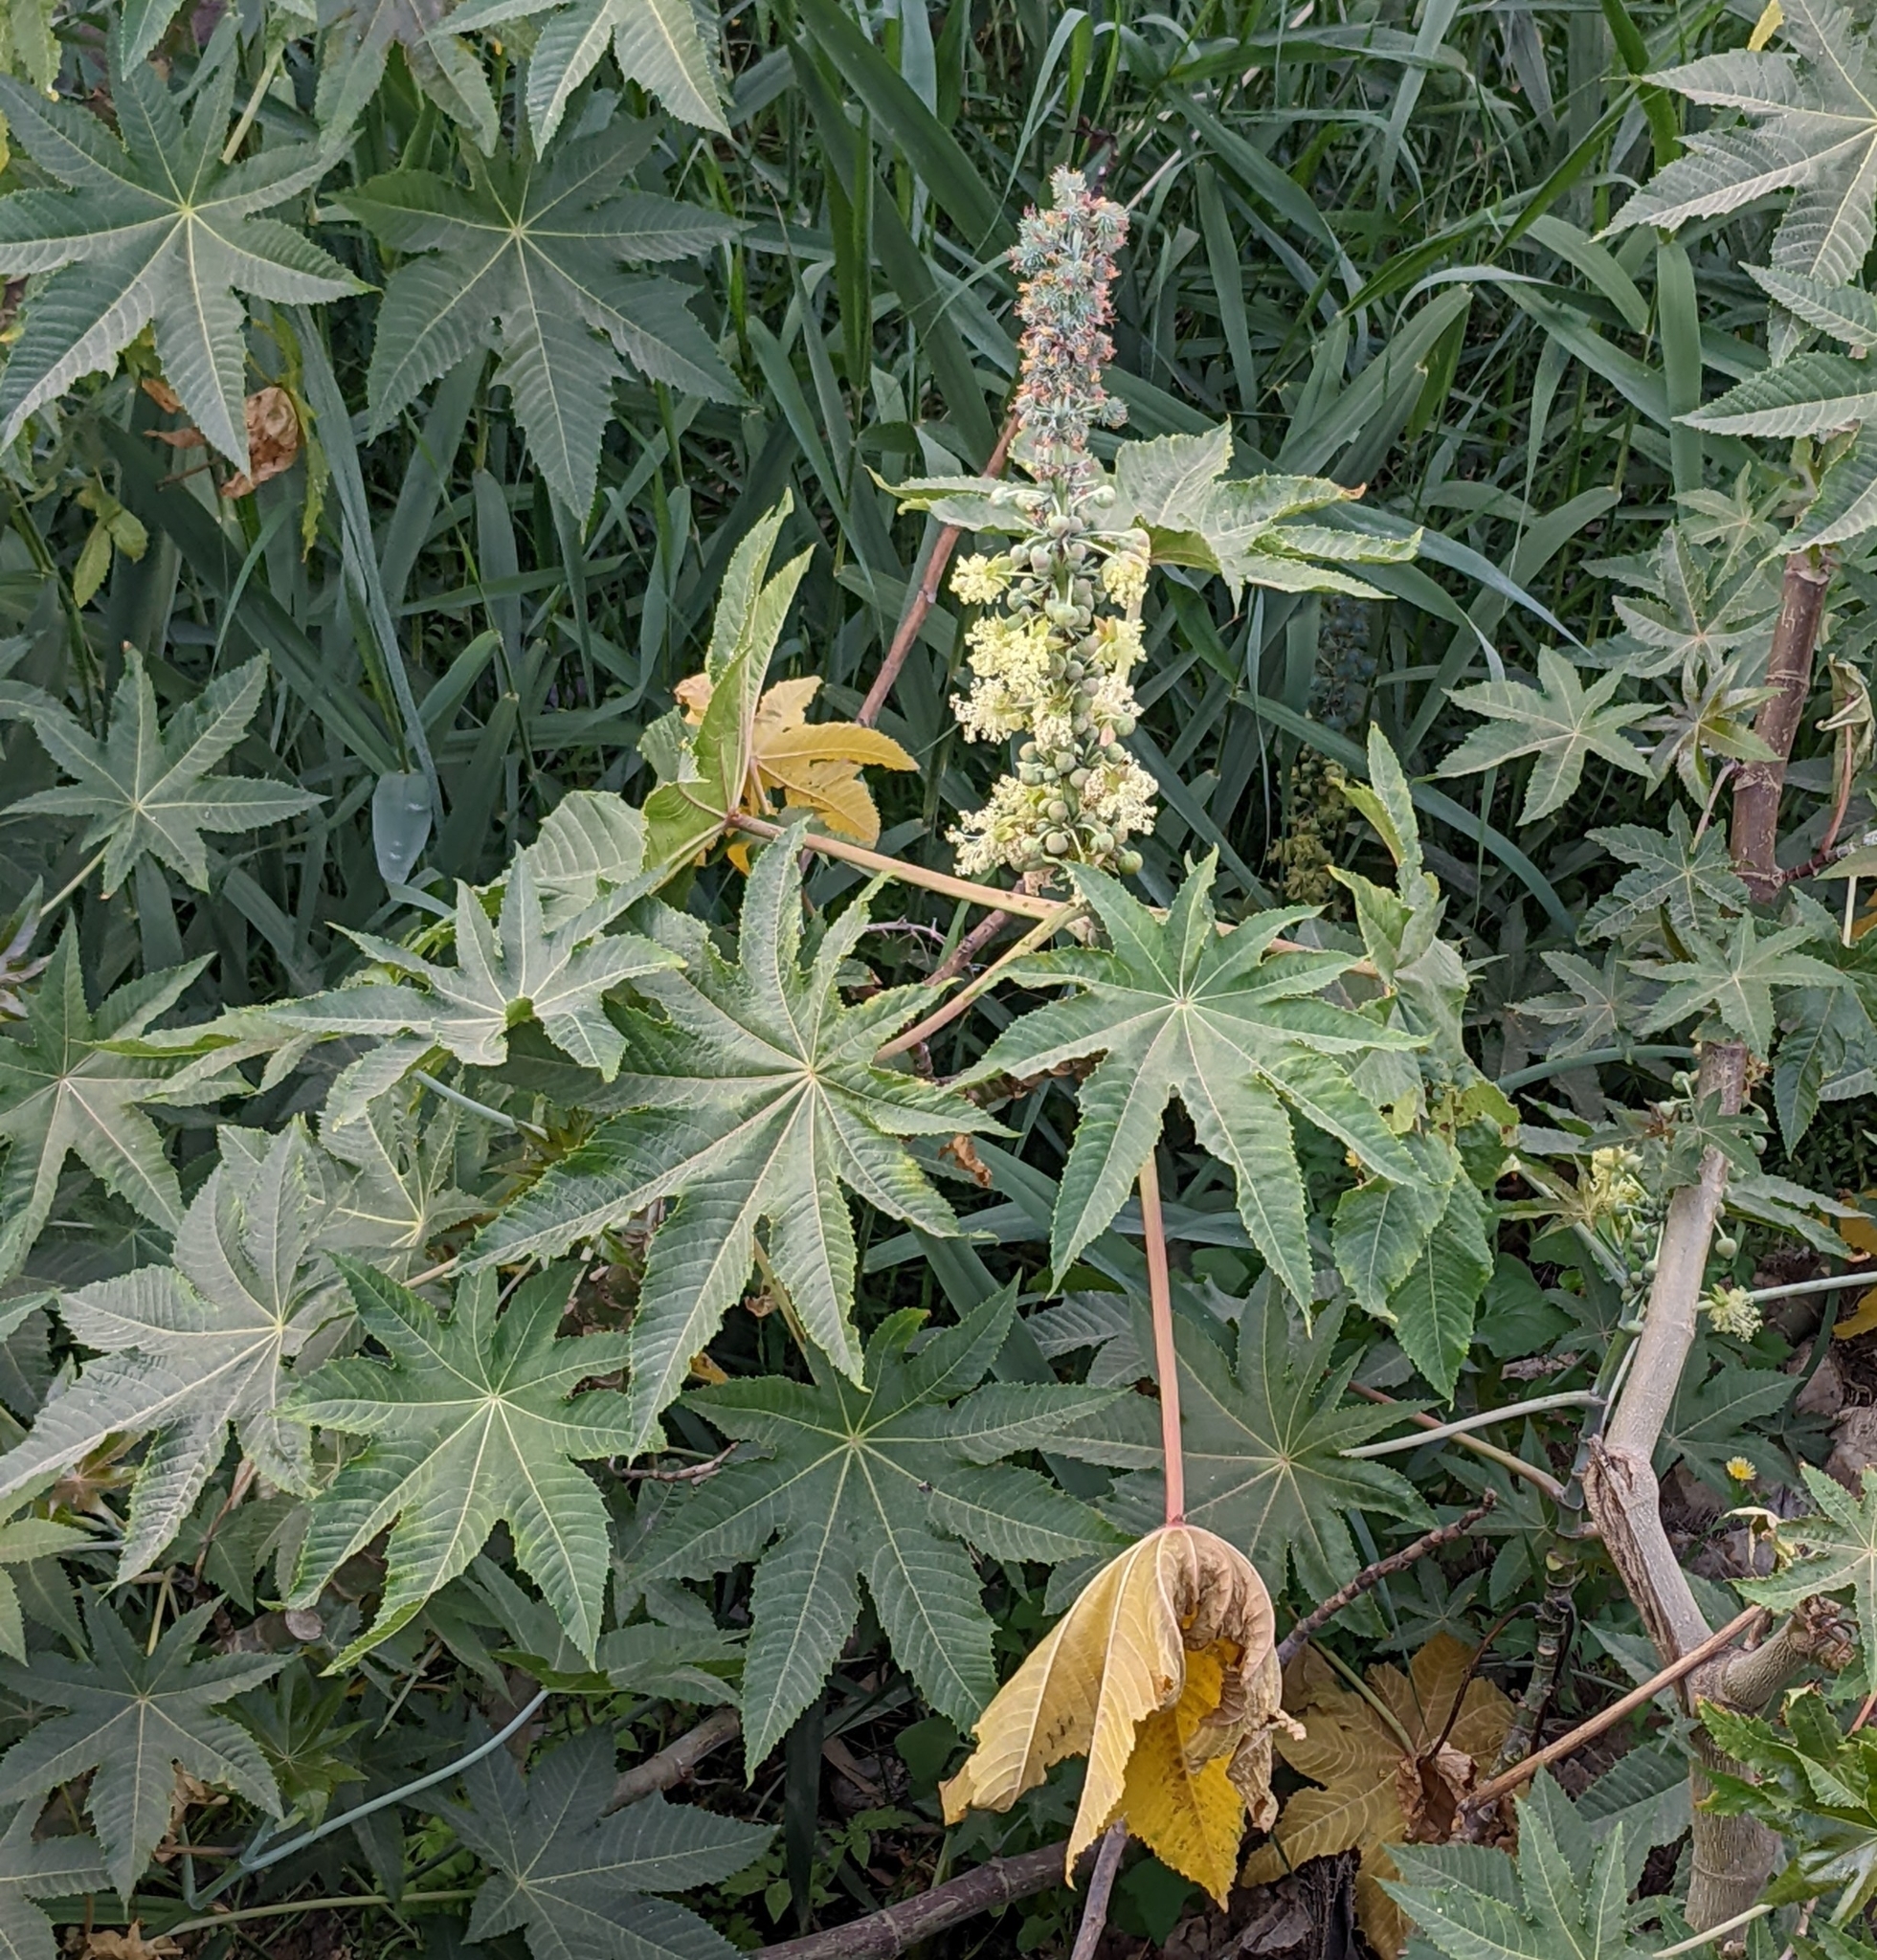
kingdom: Plantae
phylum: Tracheophyta
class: Magnoliopsida
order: Malpighiales
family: Euphorbiaceae
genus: Ricinus
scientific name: Ricinus communis
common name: Castor-oil-plant
